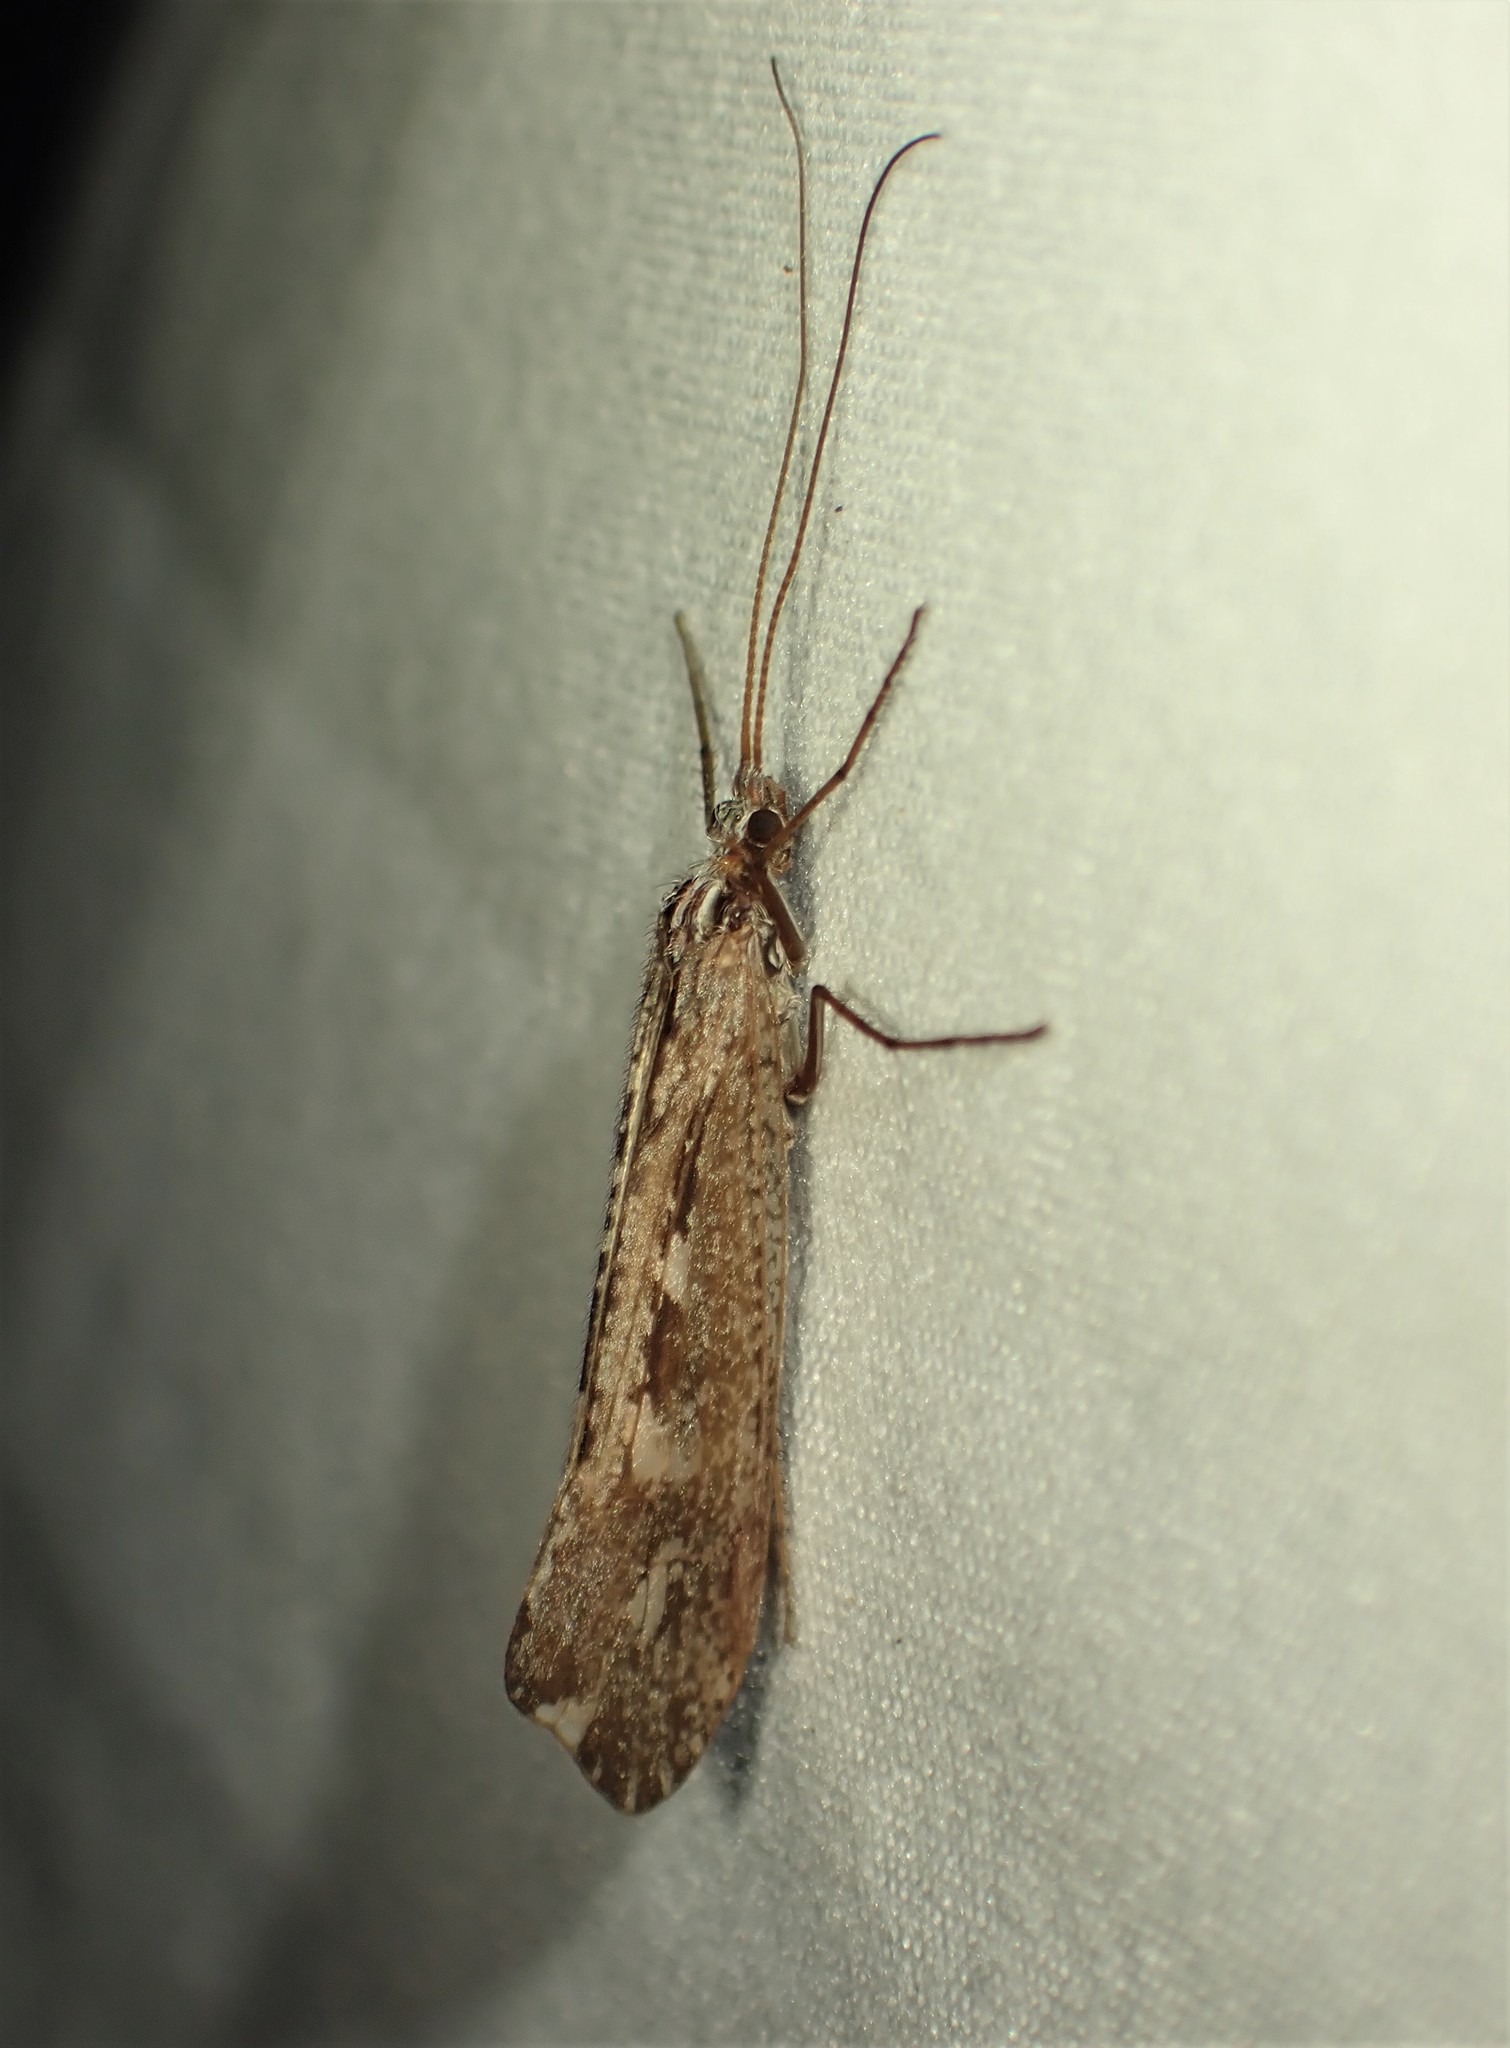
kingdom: Animalia
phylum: Arthropoda
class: Insecta
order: Trichoptera
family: Limnephilidae
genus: Glyphopsyche
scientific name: Glyphopsyche irrorata
